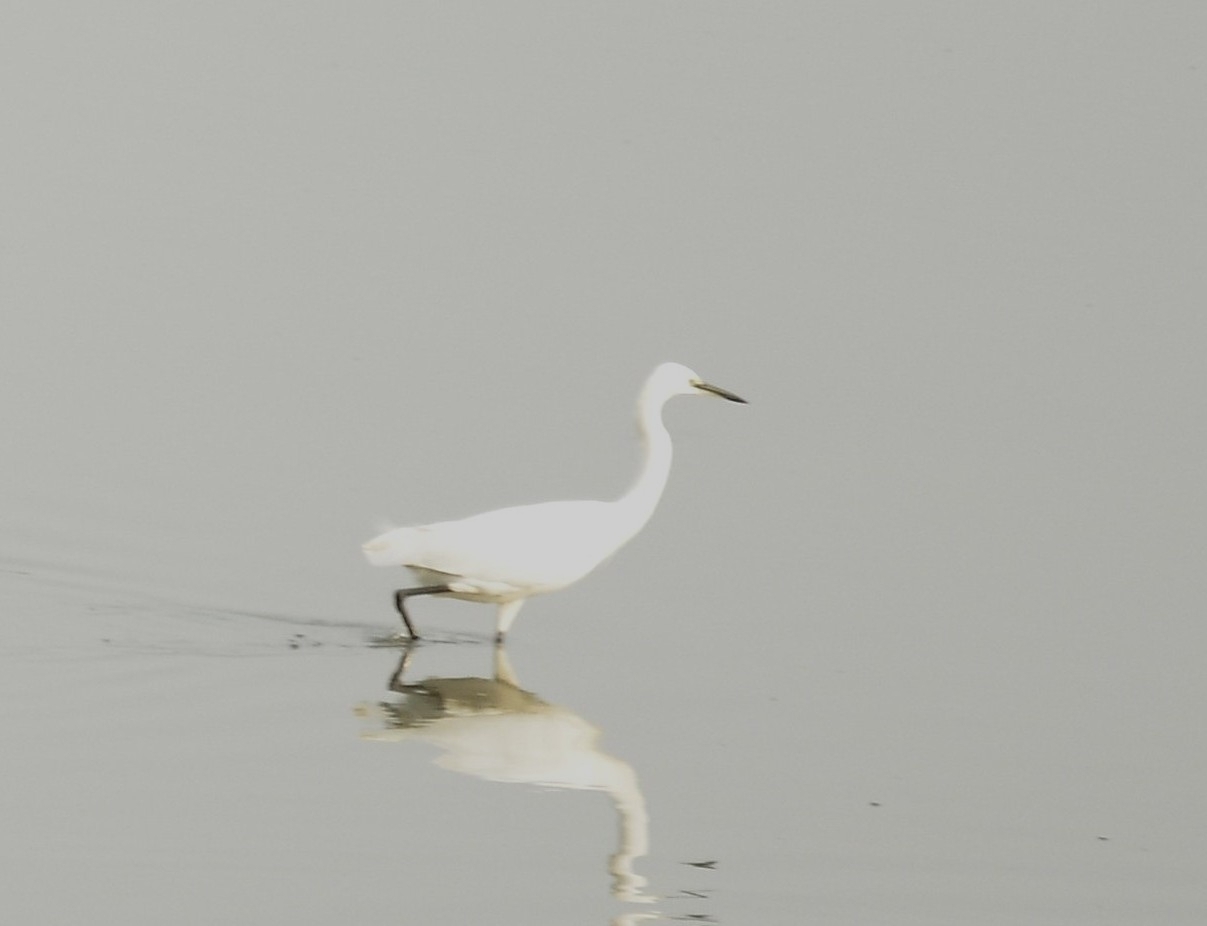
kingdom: Animalia
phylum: Chordata
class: Aves
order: Pelecaniformes
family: Ardeidae
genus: Egretta
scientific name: Egretta garzetta
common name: Little egret
